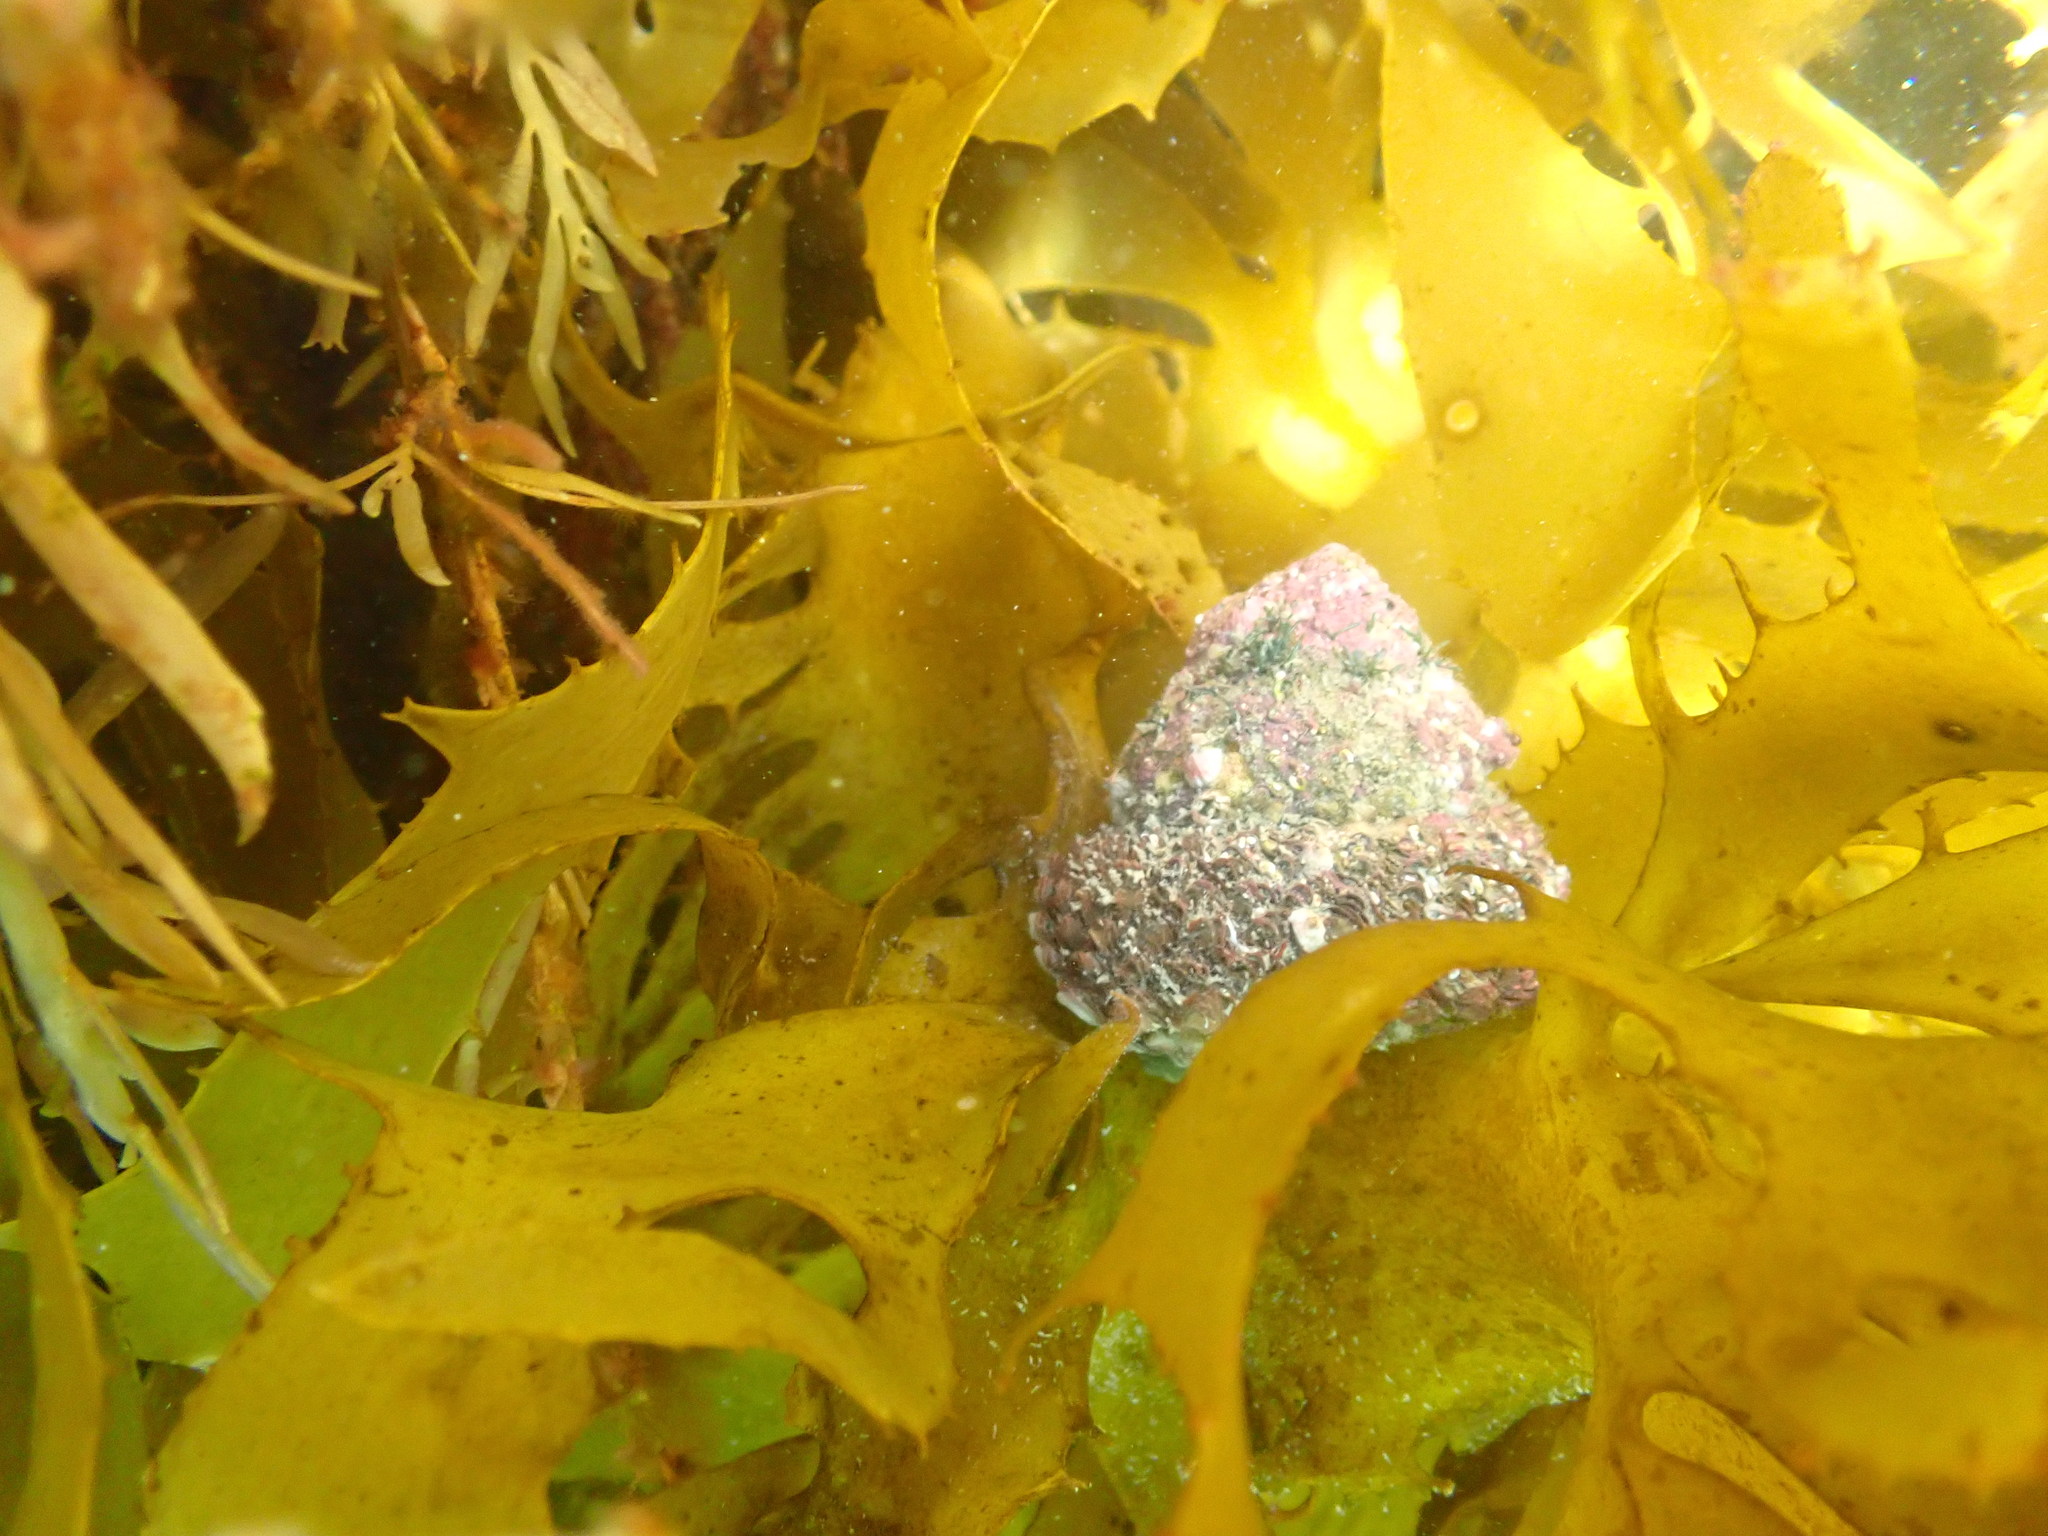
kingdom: Animalia
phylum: Mollusca
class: Gastropoda
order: Trochida
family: Turbinidae
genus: Cookia
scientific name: Cookia sulcata
